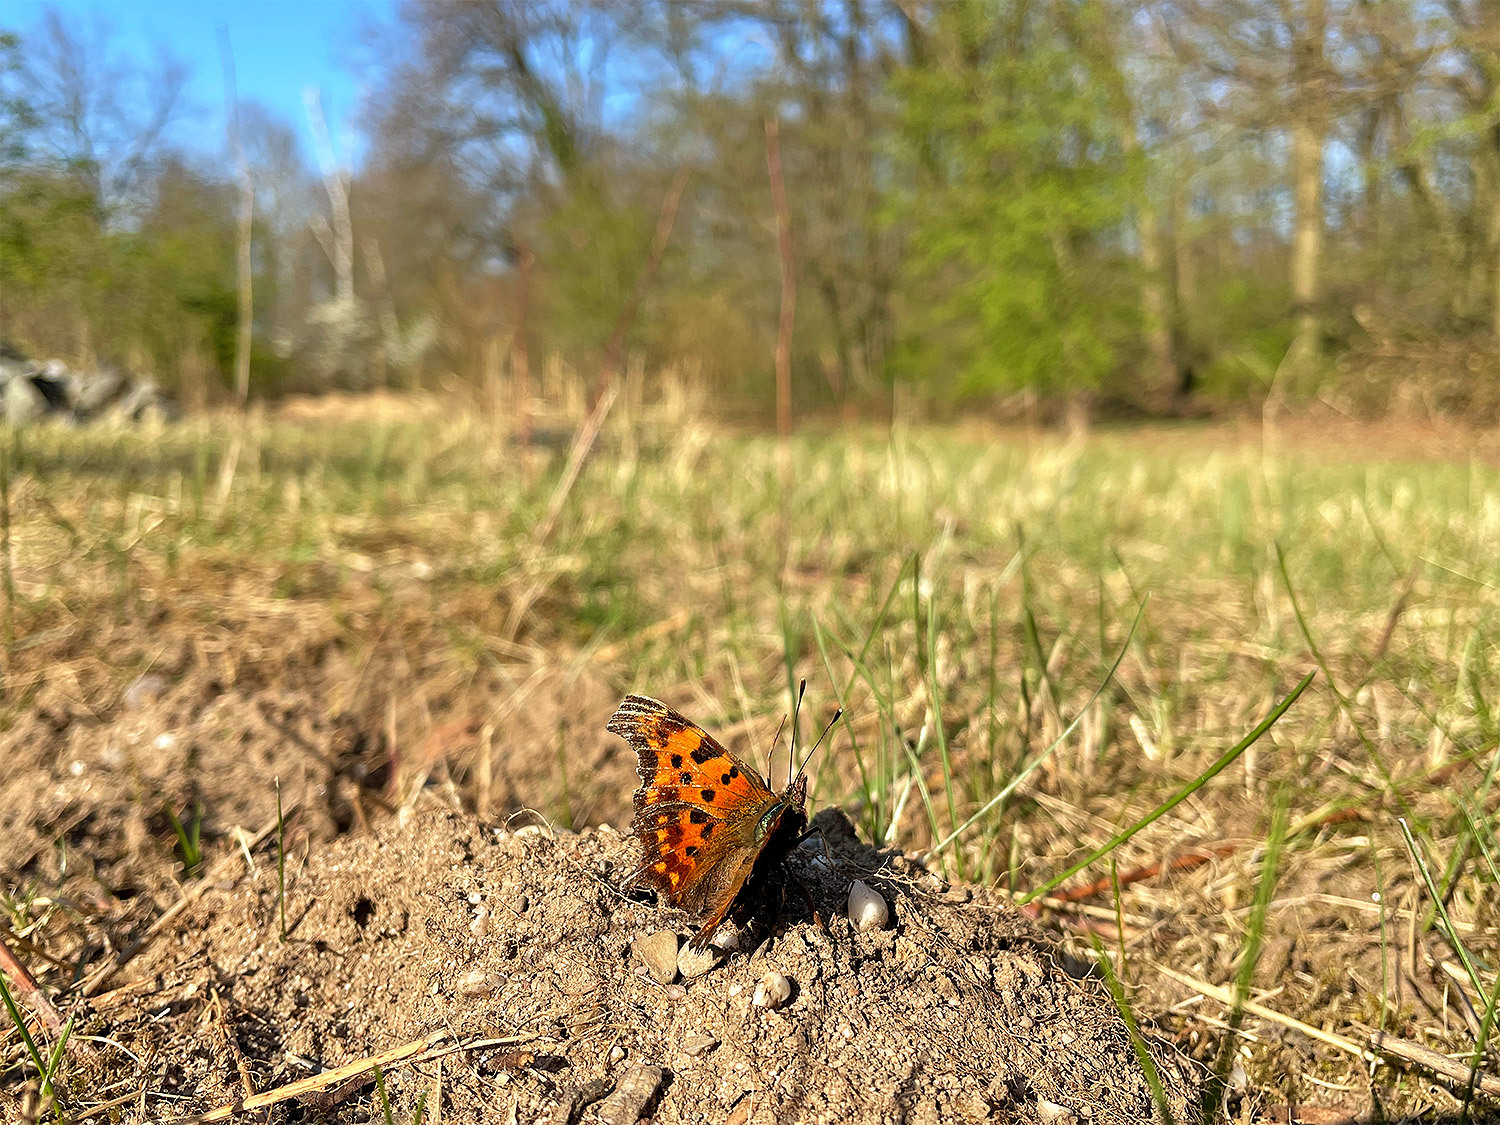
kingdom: Animalia
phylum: Arthropoda
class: Insecta
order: Lepidoptera
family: Nymphalidae
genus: Polygonia
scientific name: Polygonia c-album
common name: Comma
